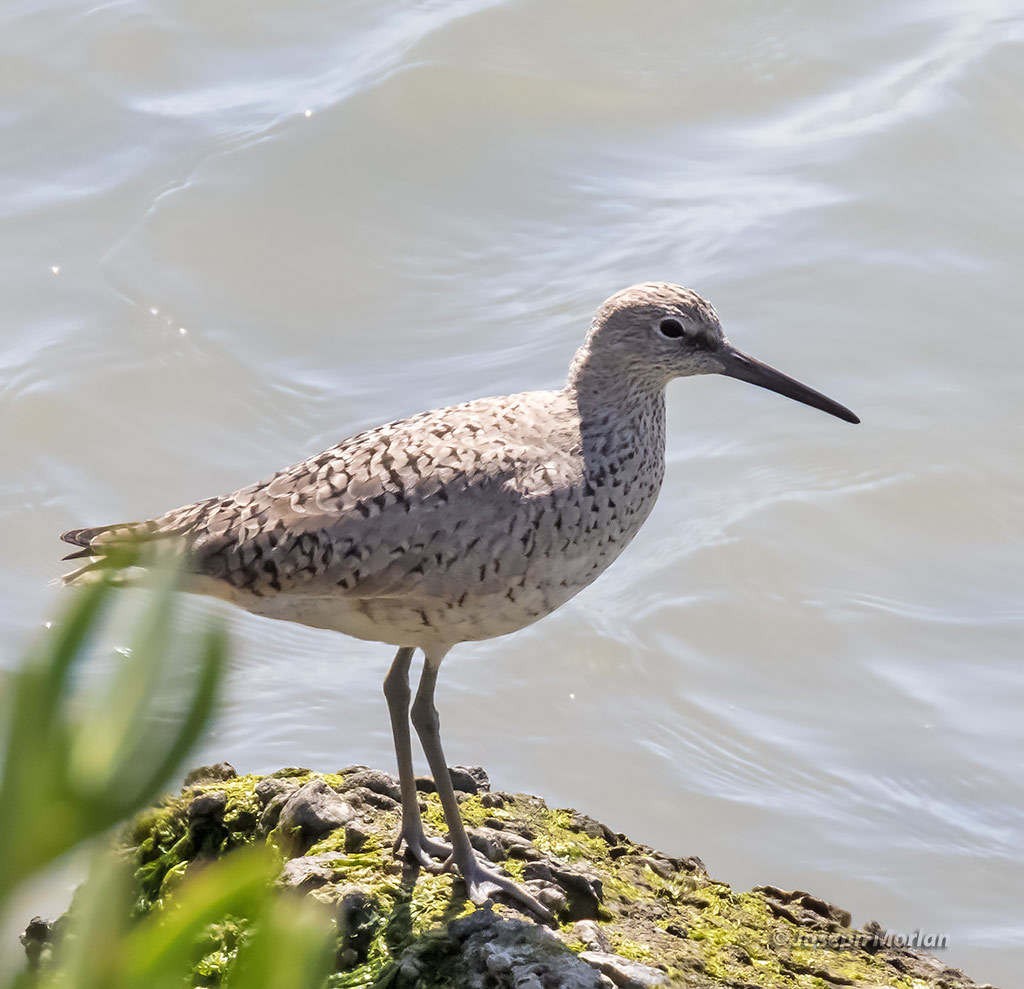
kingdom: Animalia
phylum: Chordata
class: Aves
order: Charadriiformes
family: Scolopacidae
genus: Tringa
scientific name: Tringa semipalmata
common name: Willet
